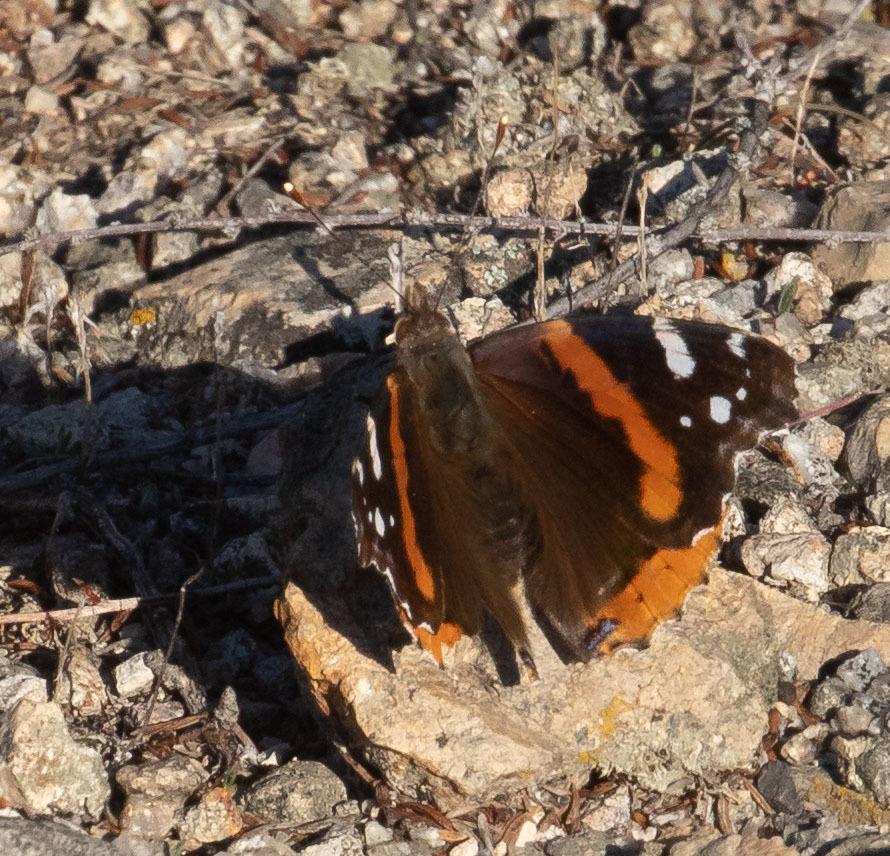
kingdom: Animalia
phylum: Arthropoda
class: Insecta
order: Lepidoptera
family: Nymphalidae
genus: Vanessa
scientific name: Vanessa atalanta
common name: Red admiral
